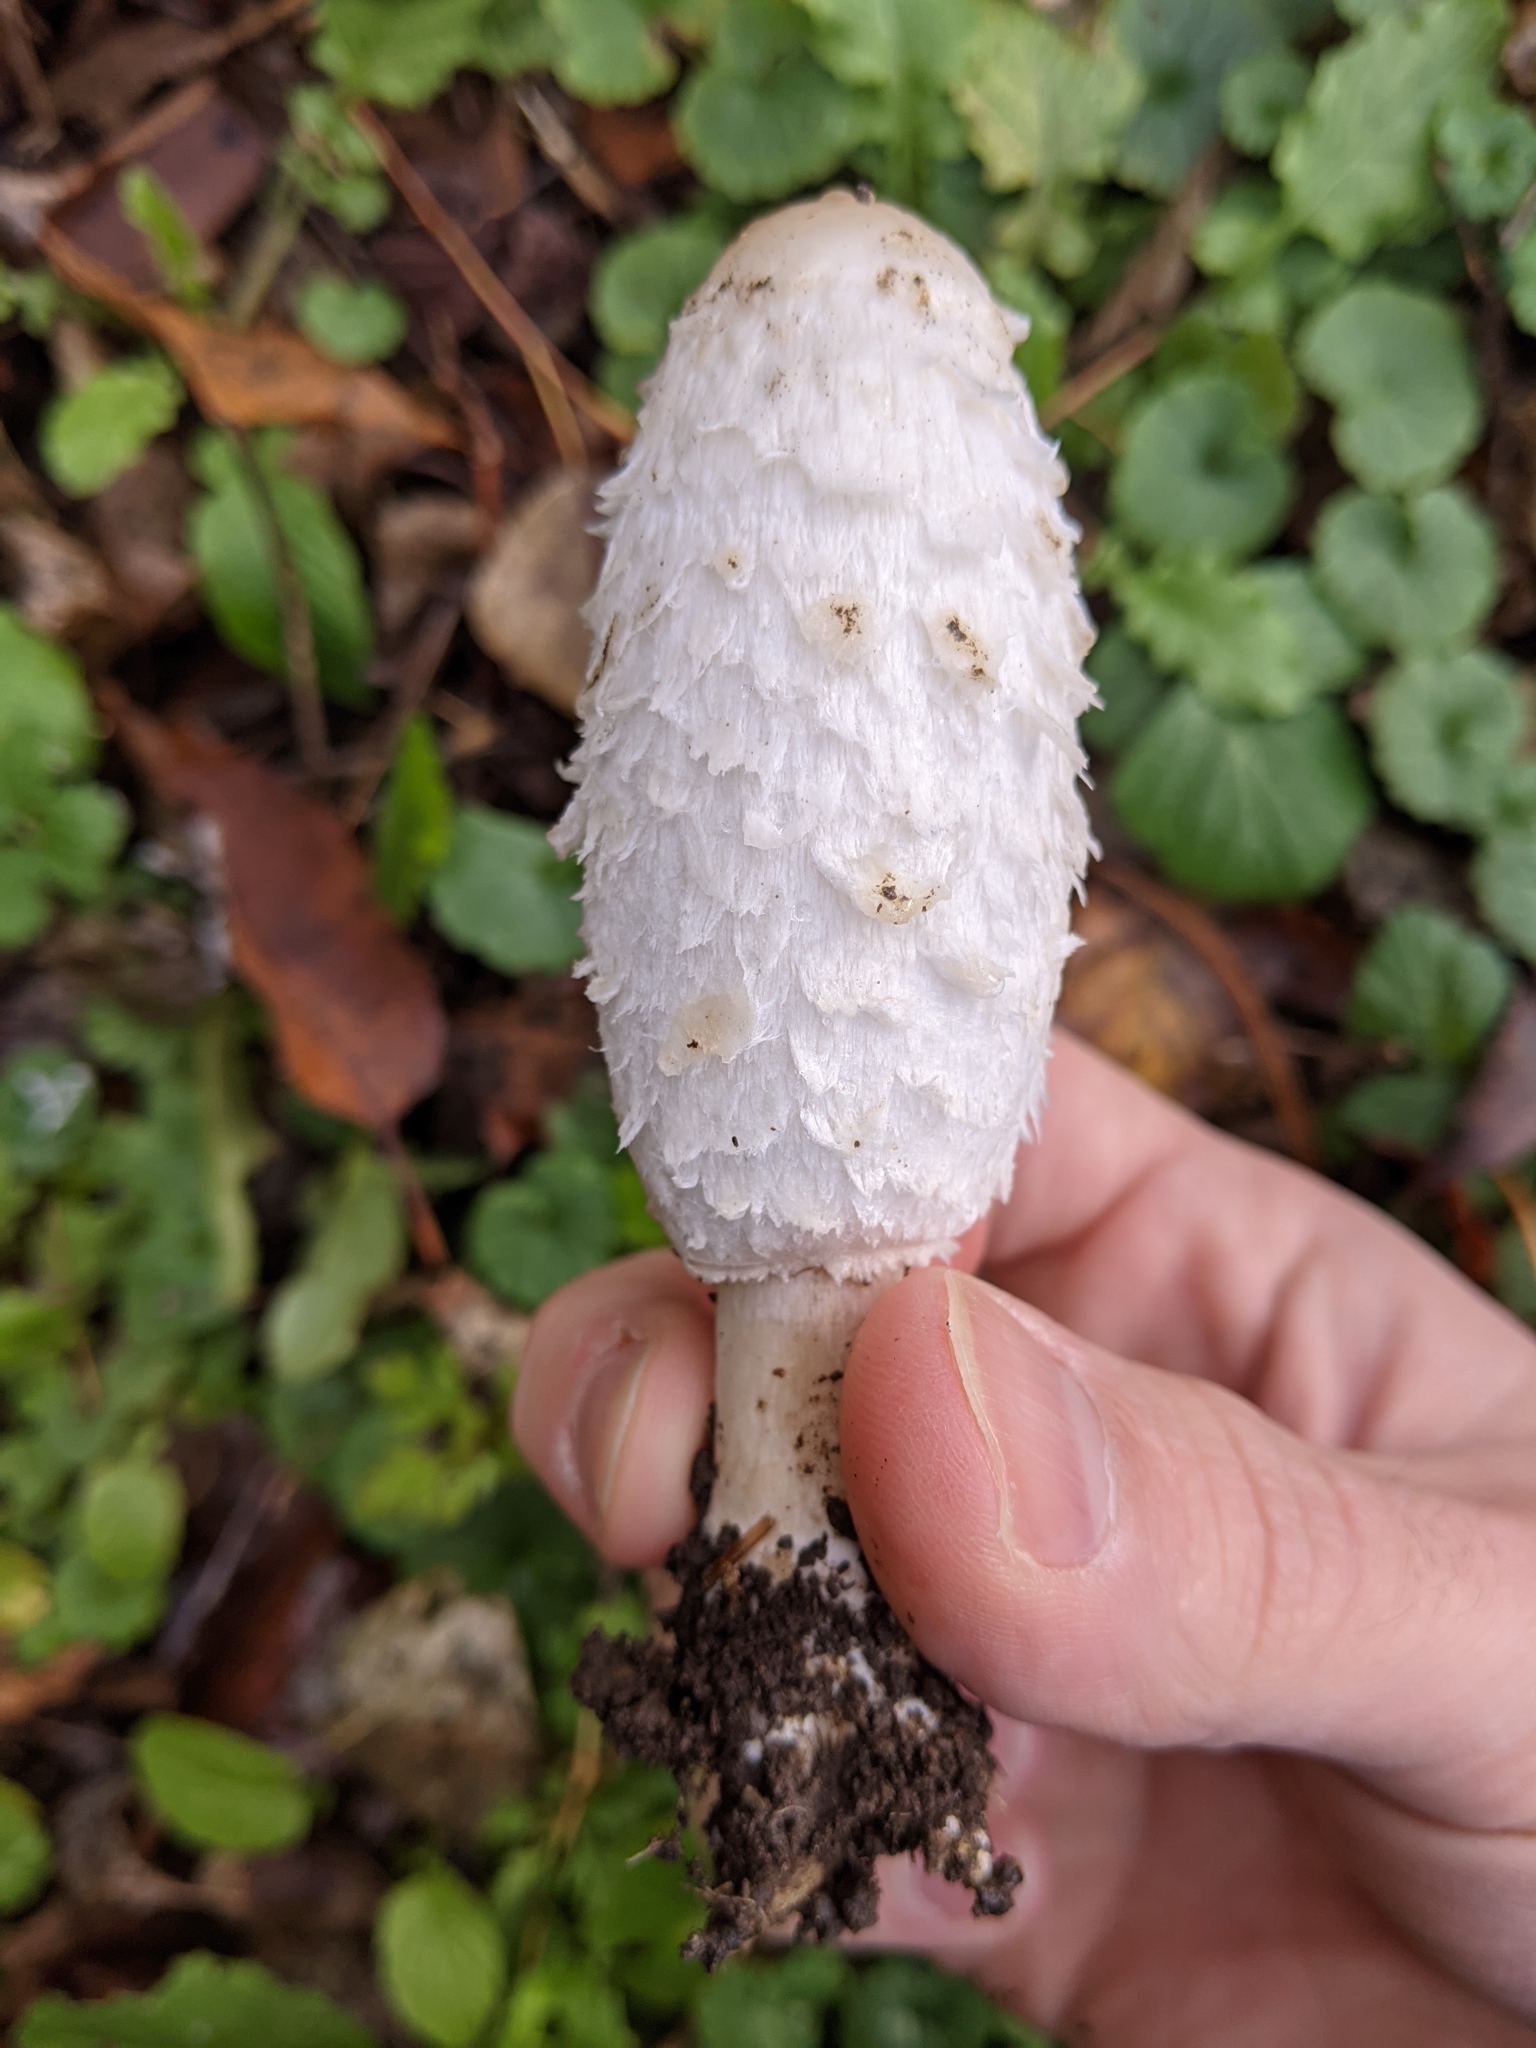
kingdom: Fungi
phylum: Basidiomycota
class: Agaricomycetes
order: Agaricales
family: Agaricaceae
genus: Coprinus
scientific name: Coprinus comatus
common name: Lawyer's wig
